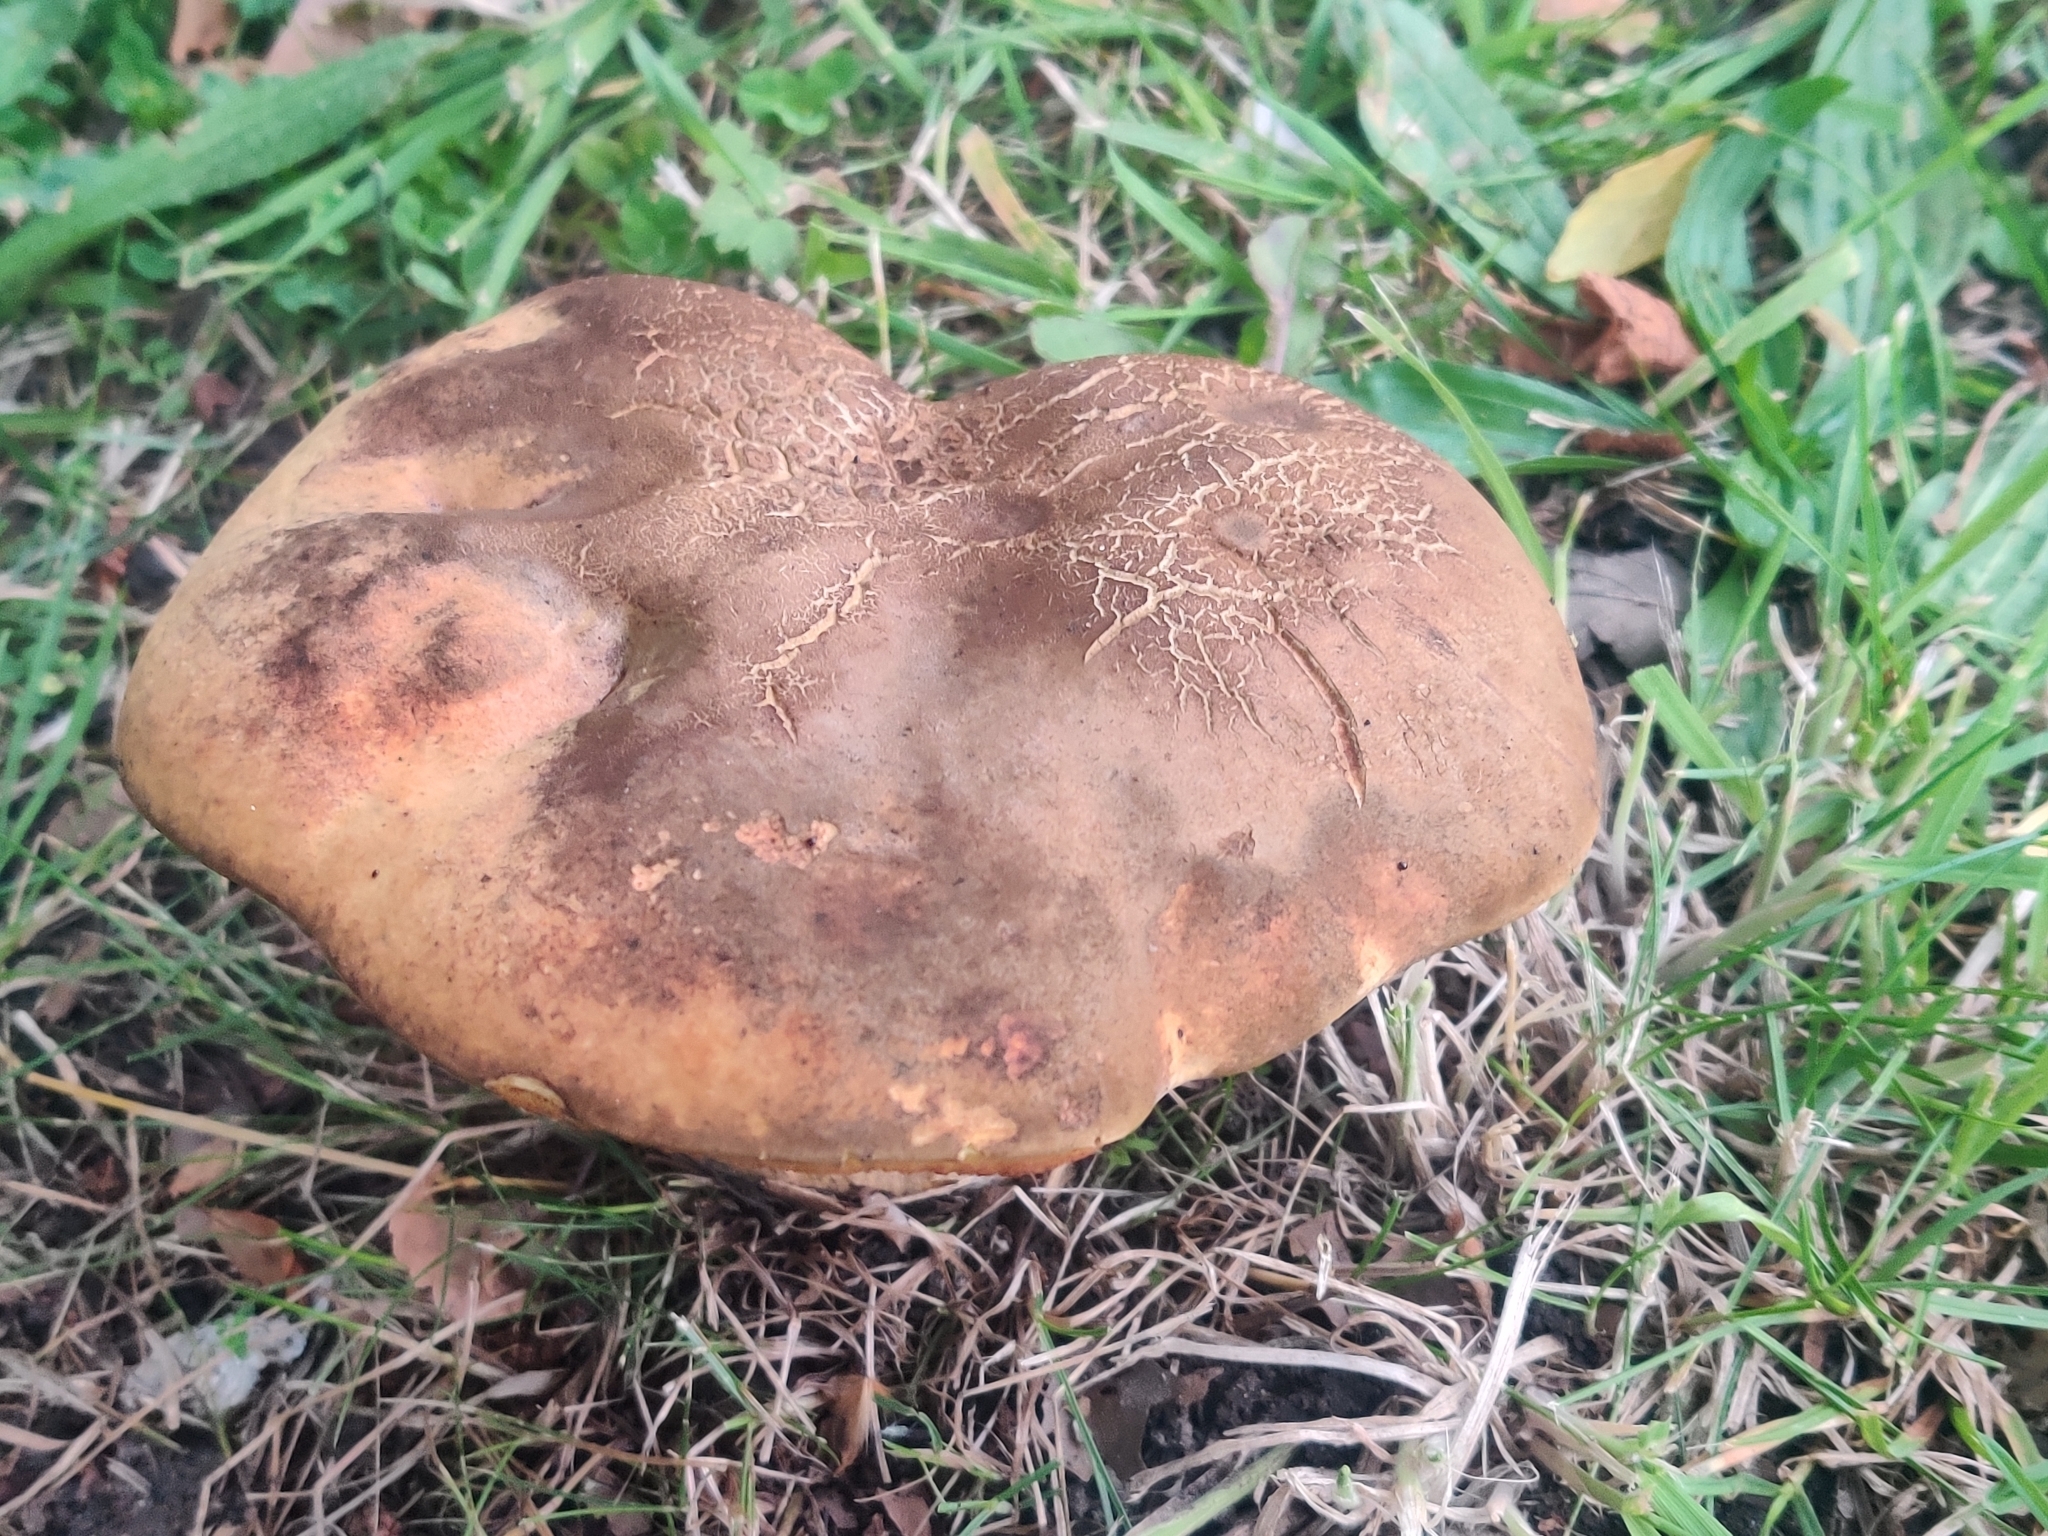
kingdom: Fungi
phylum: Basidiomycota
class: Agaricomycetes
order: Boletales
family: Boletaceae
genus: Suillellus
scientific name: Suillellus luridus
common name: Lurid bolete
